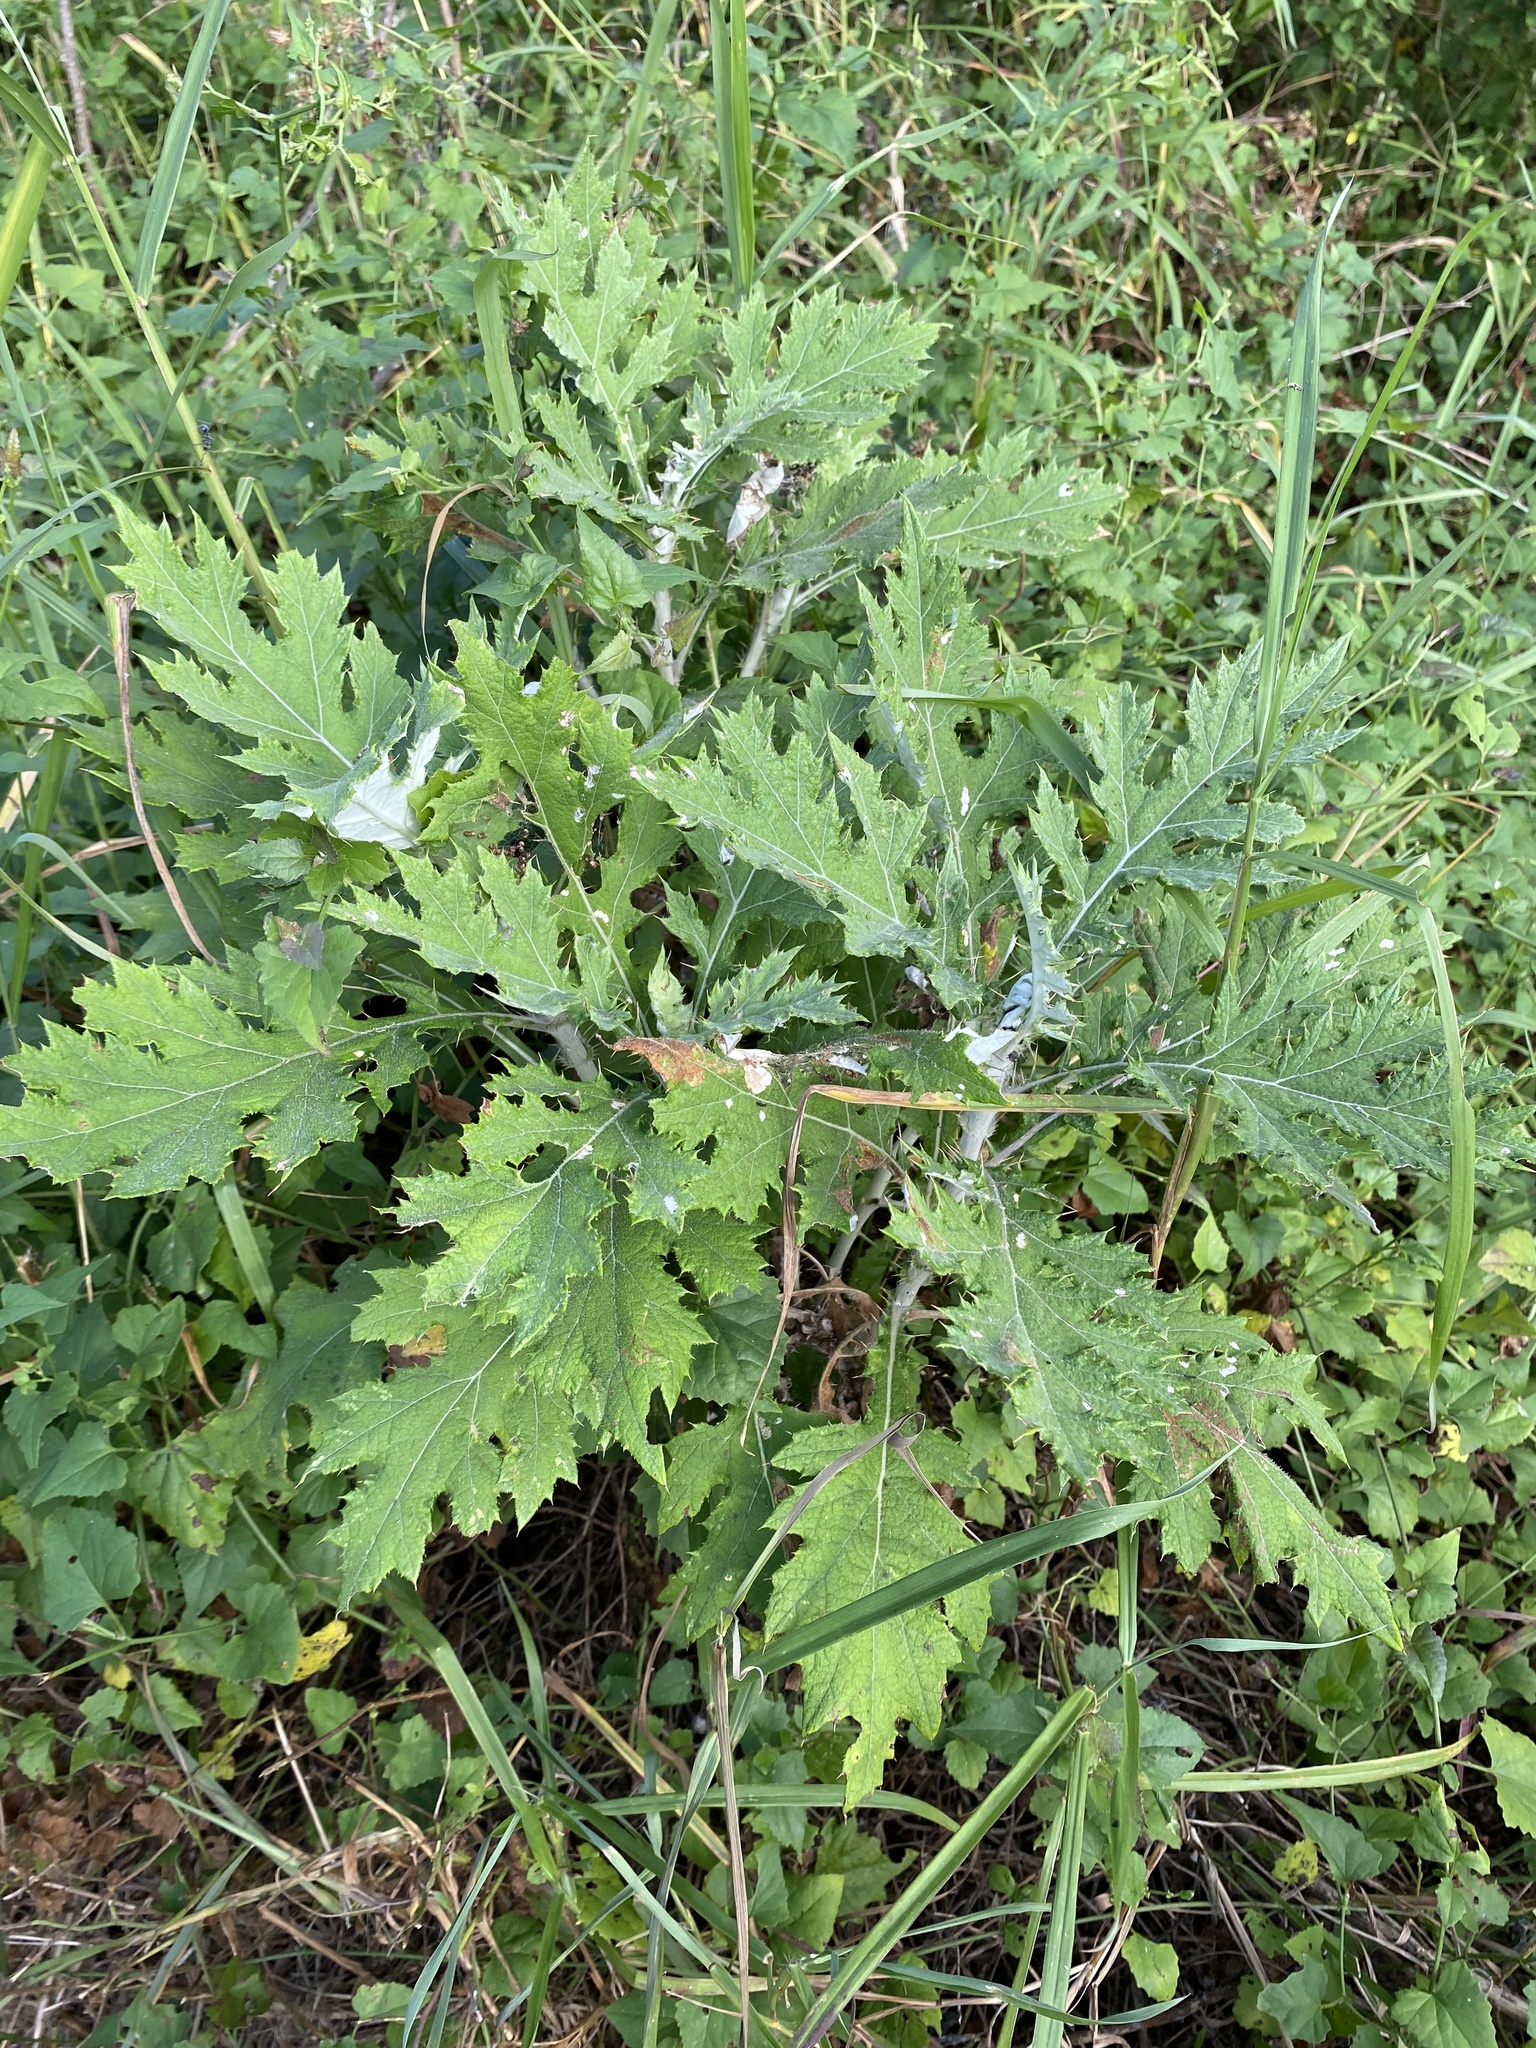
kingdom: Plantae
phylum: Tracheophyta
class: Magnoliopsida
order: Asterales
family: Asteraceae
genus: Berkheya
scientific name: Berkheya bipinnatifida
